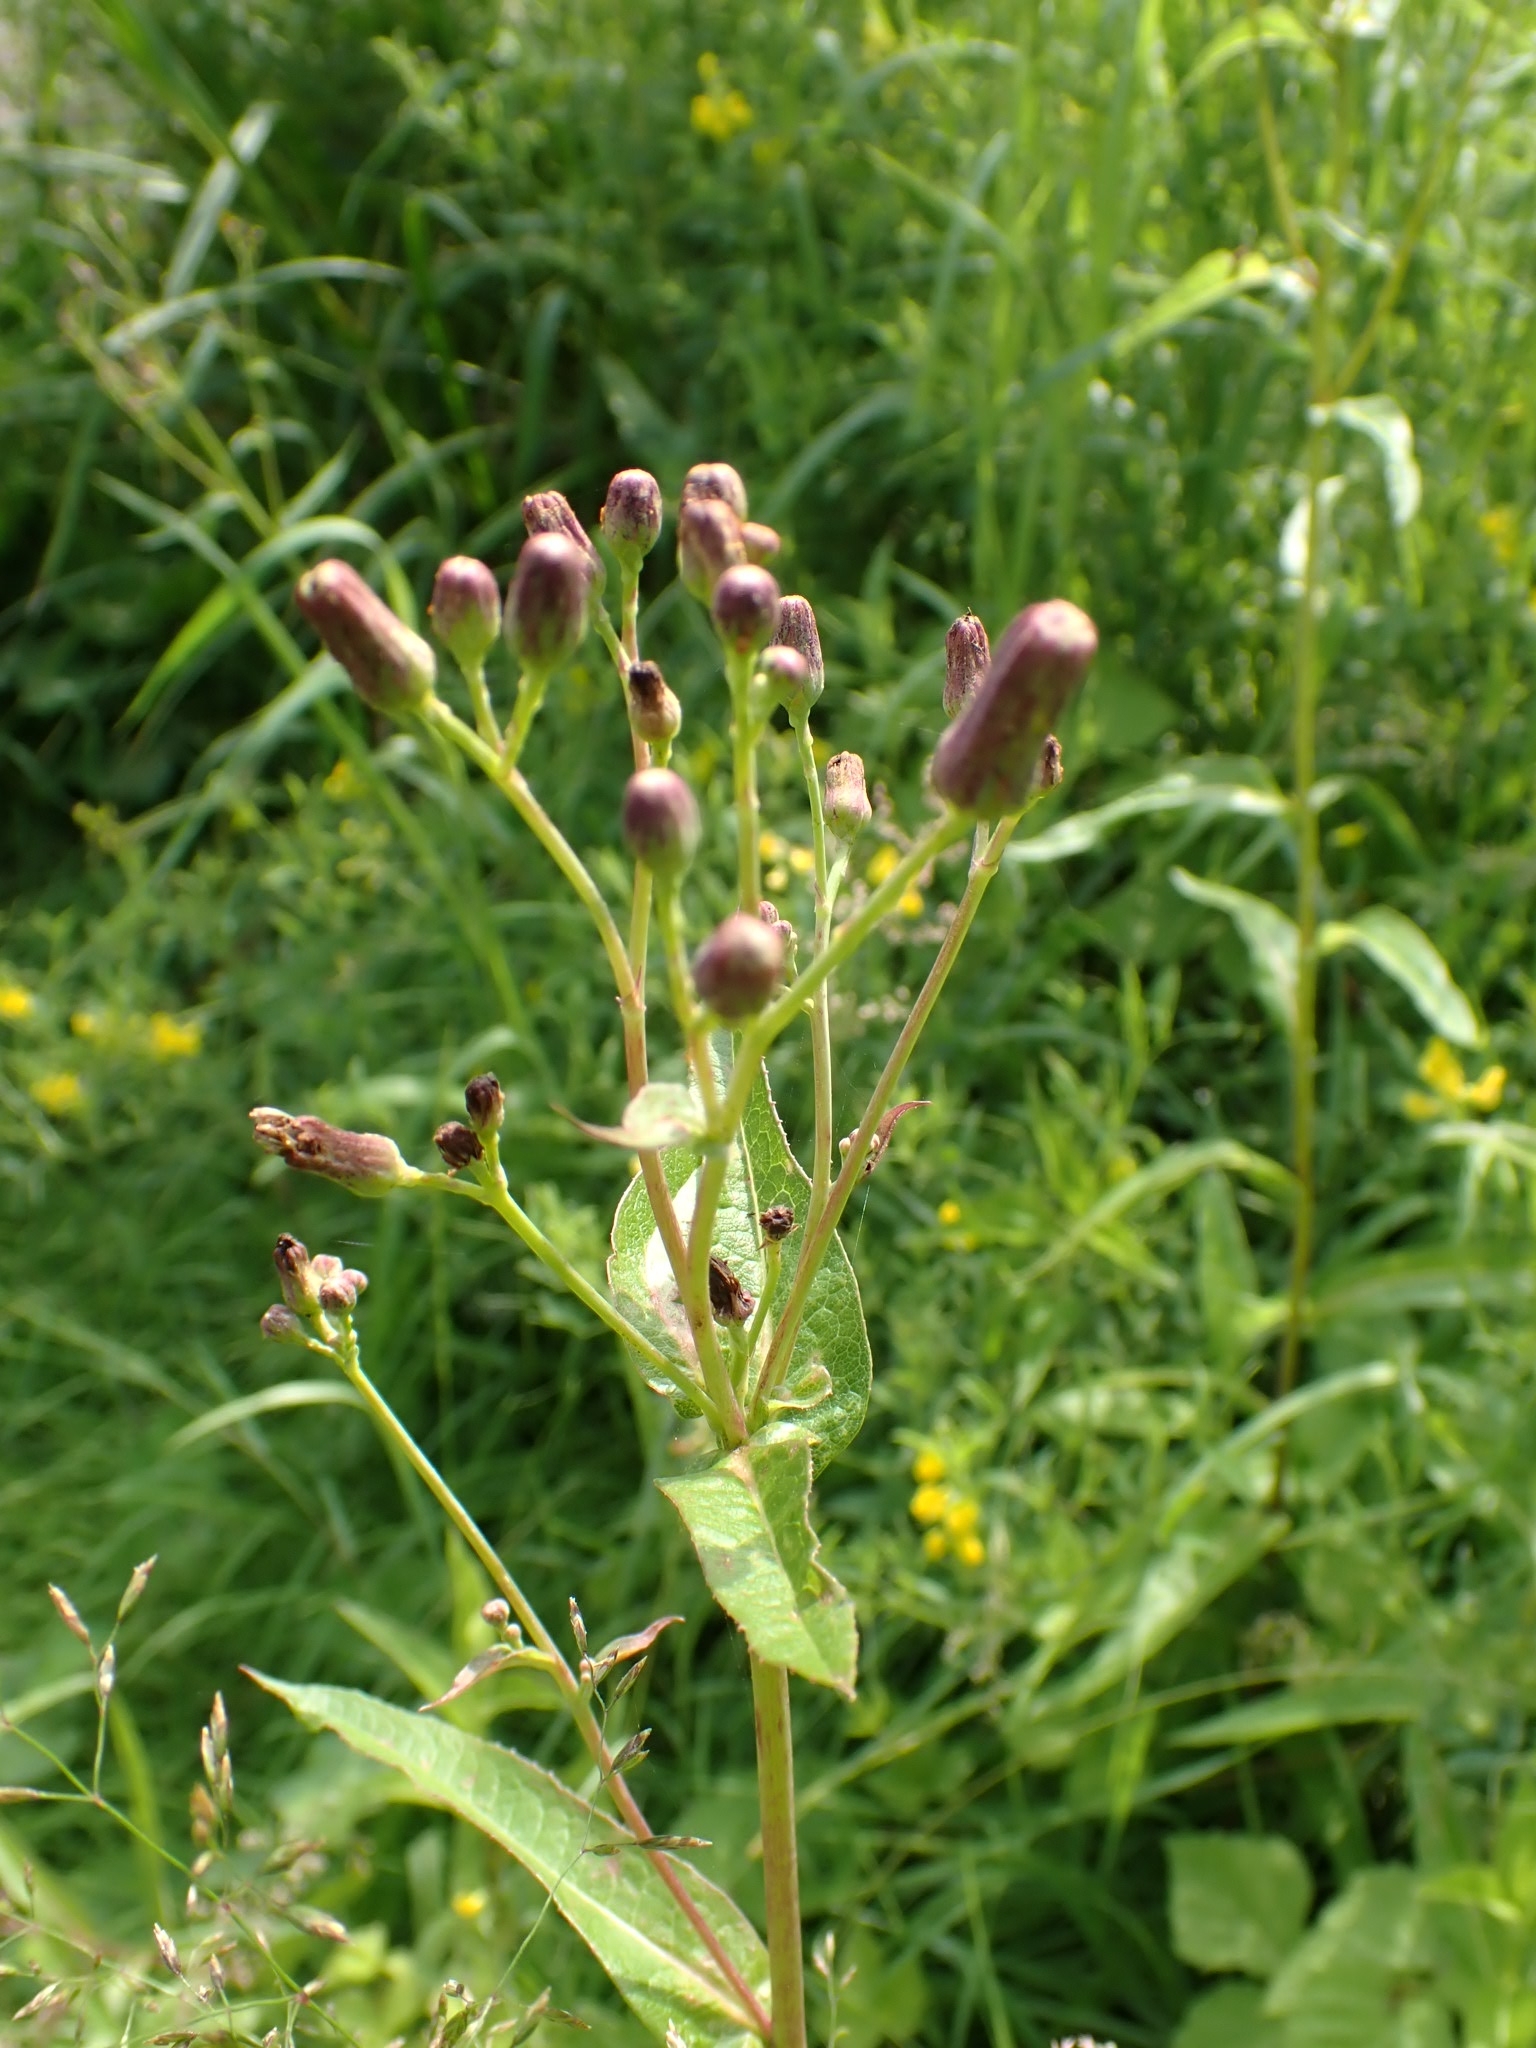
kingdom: Plantae
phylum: Tracheophyta
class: Magnoliopsida
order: Asterales
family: Asteraceae
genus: Lactuca
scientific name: Lactuca sibirica
